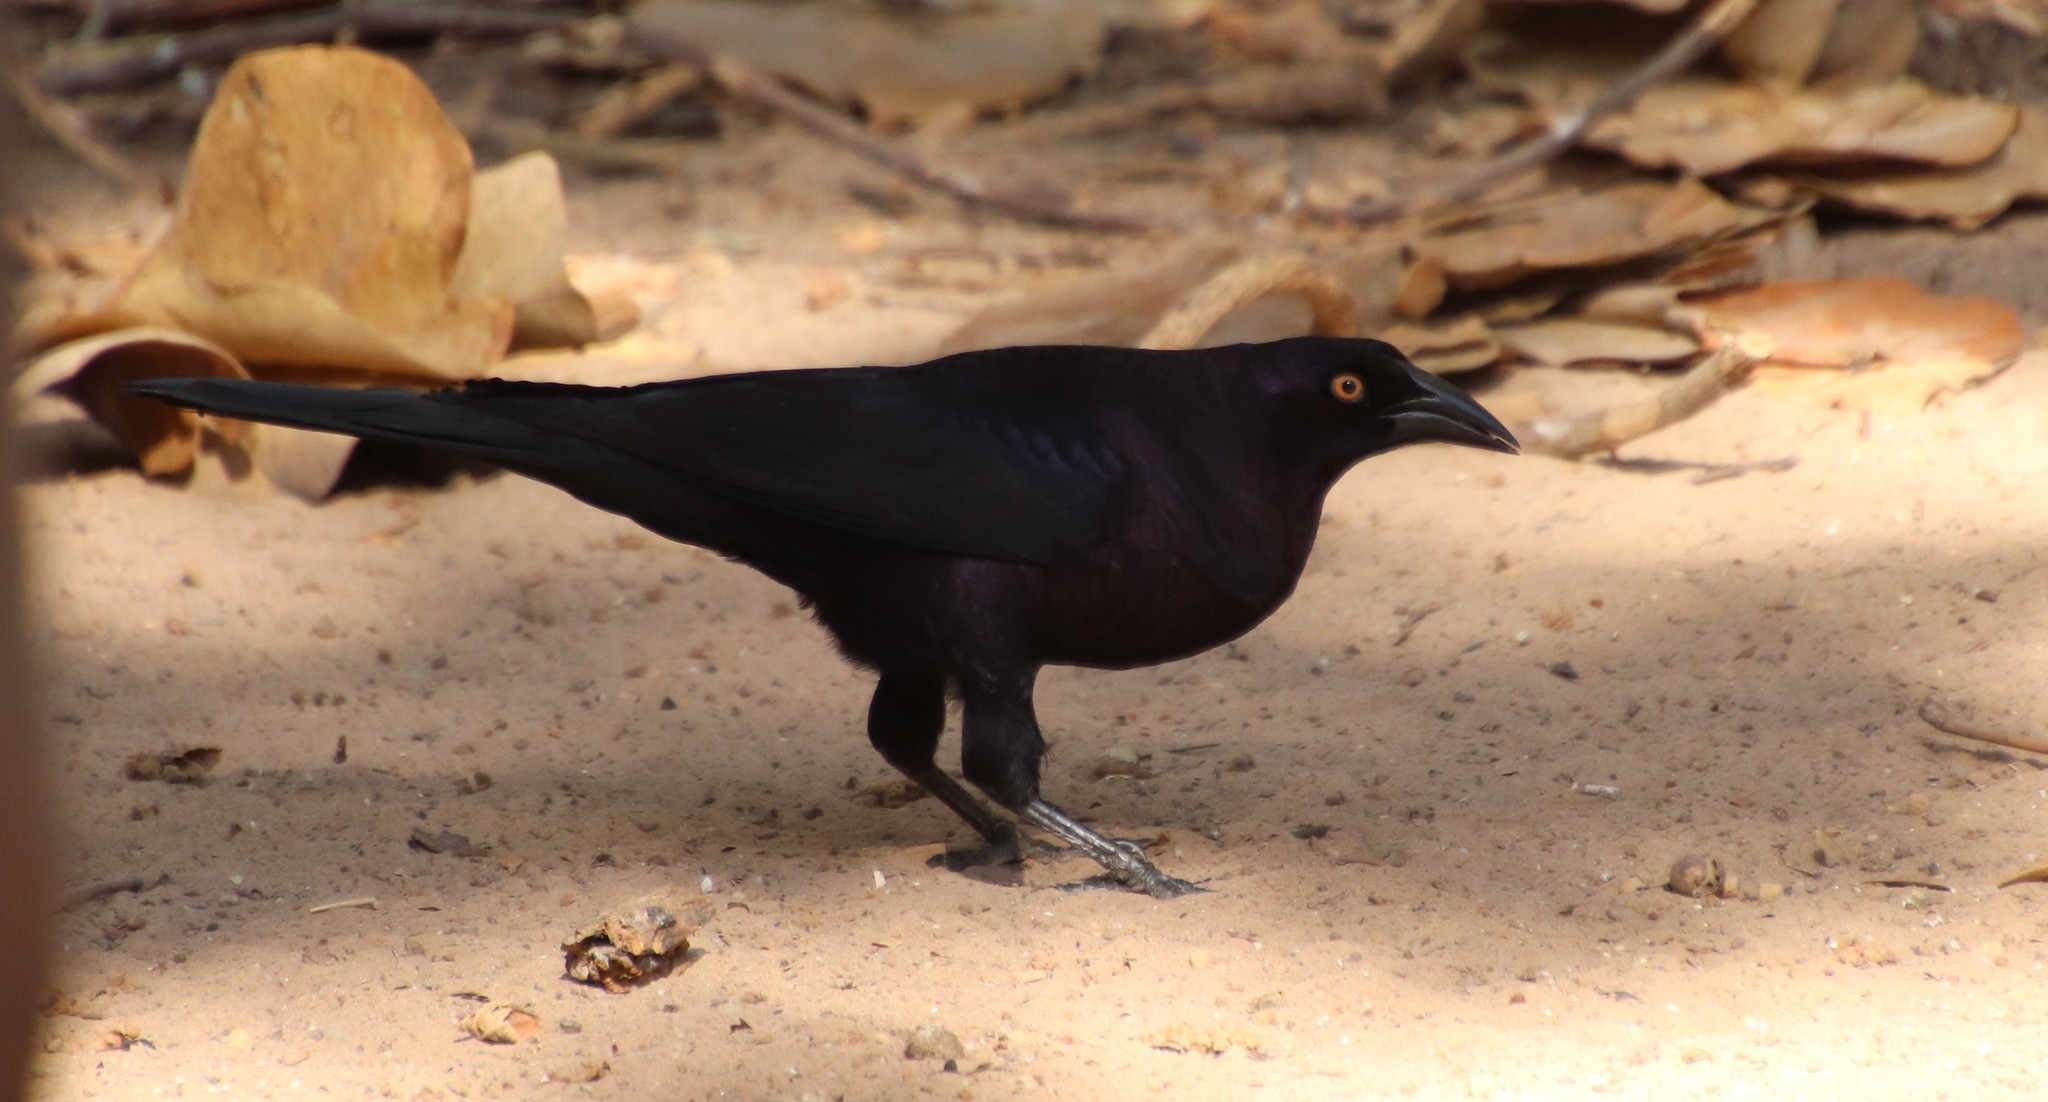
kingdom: Animalia
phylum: Chordata
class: Aves
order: Passeriformes
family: Icteridae
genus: Molothrus
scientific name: Molothrus oryzivorus
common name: Giant cowbird
